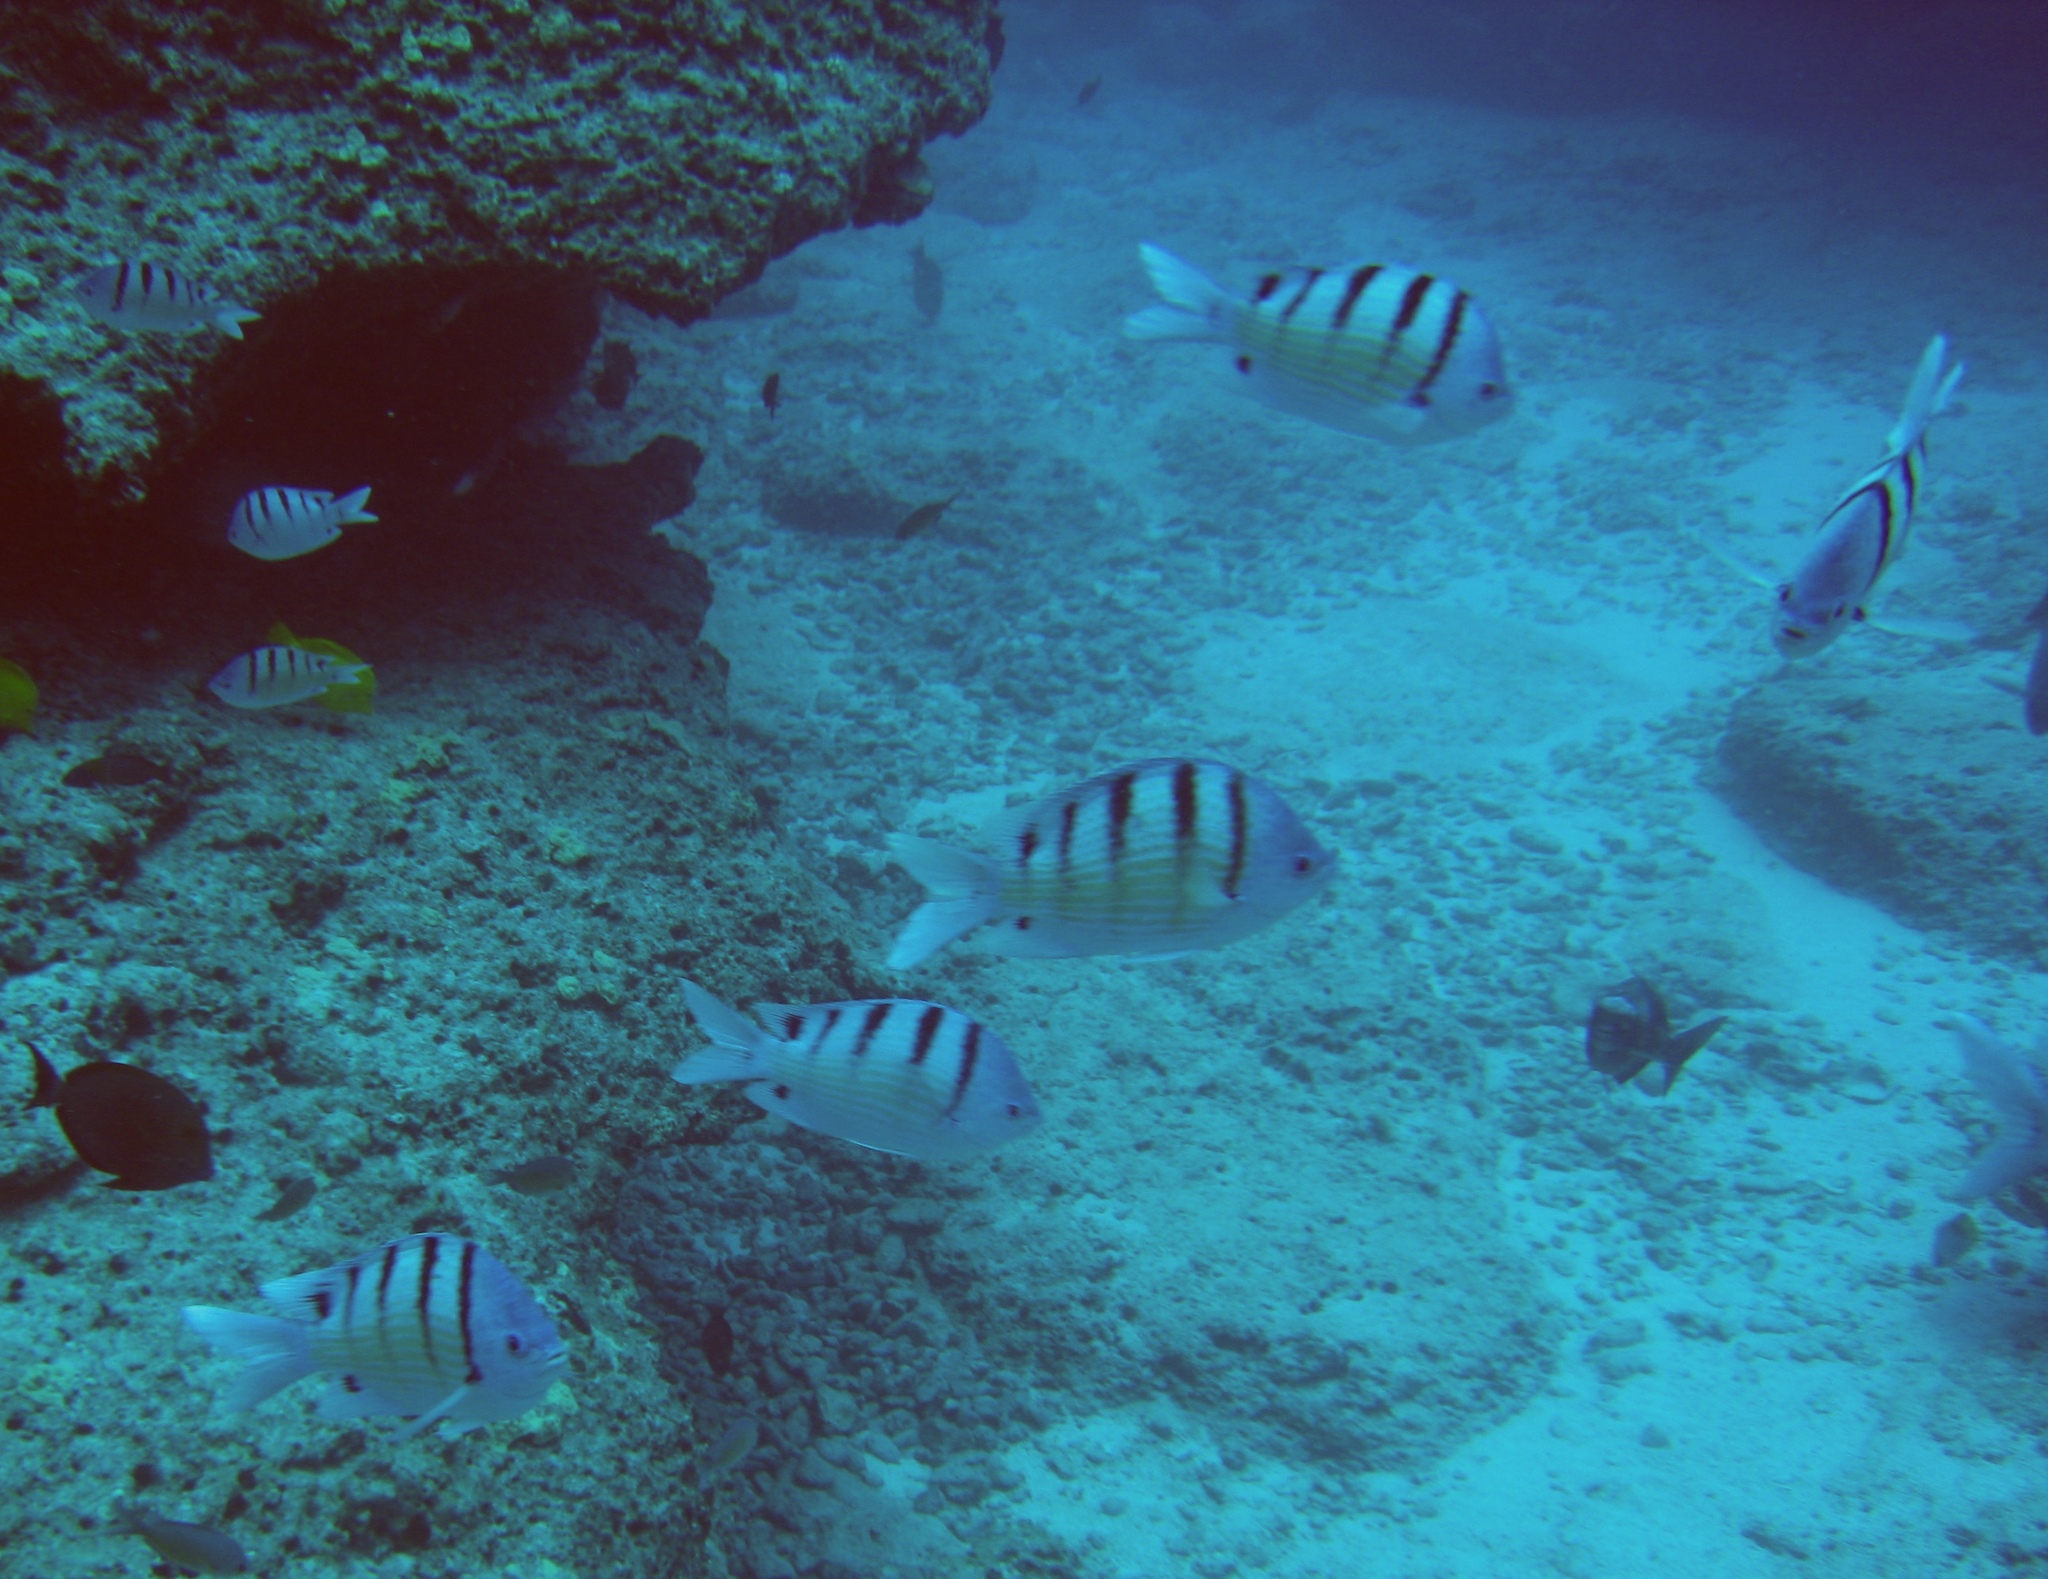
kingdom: Animalia
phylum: Chordata
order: Perciformes
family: Pomacentridae
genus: Abudefduf
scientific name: Abudefduf abdominalis
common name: Green damselfish
